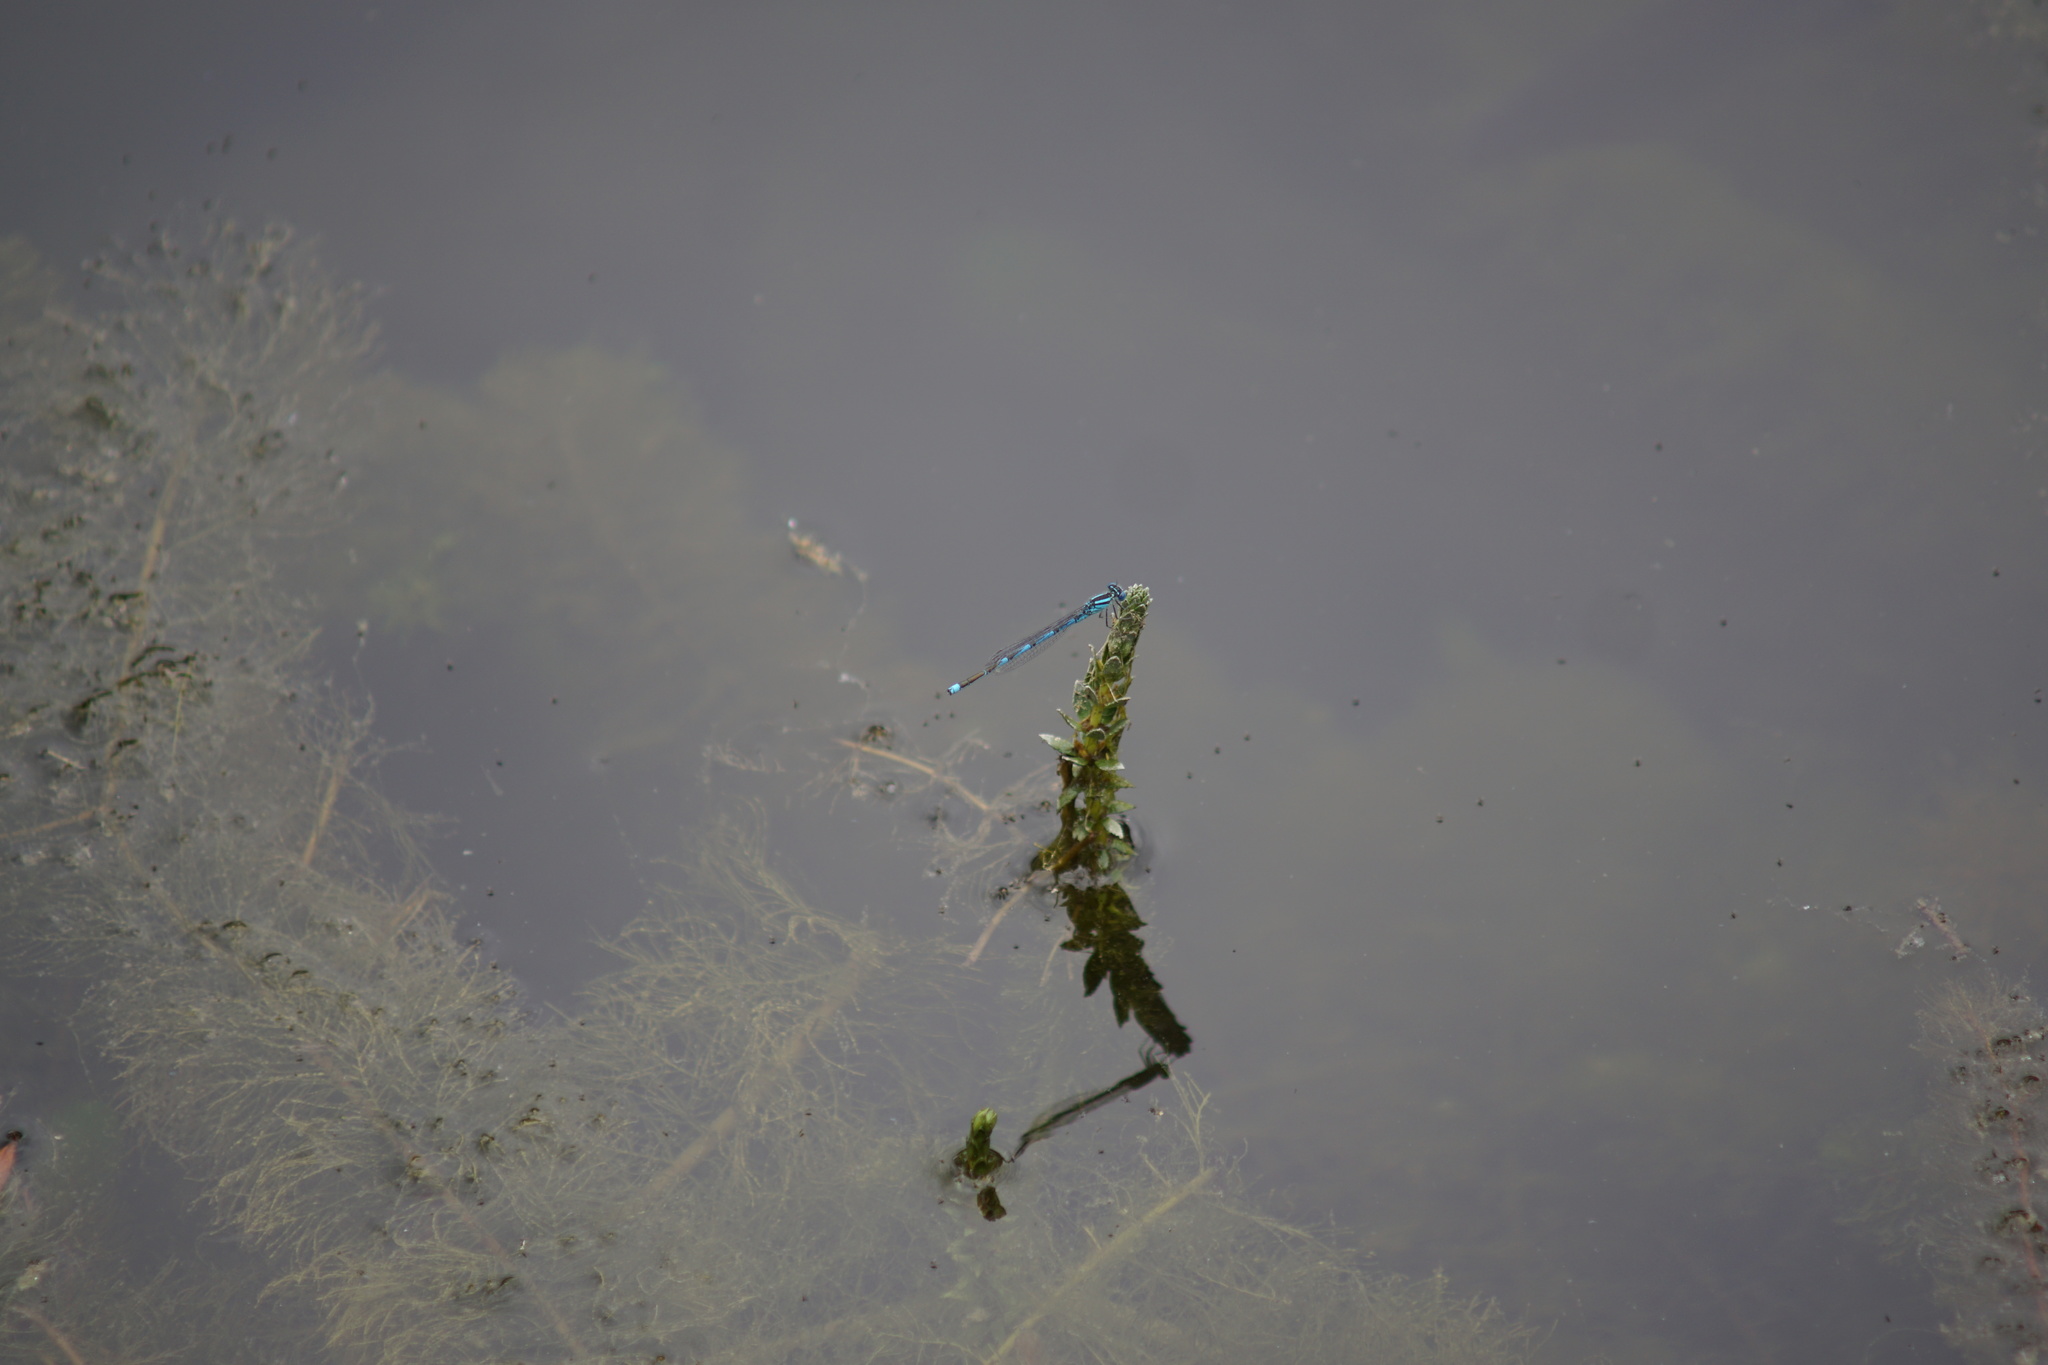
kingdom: Animalia
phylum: Arthropoda
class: Insecta
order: Odonata
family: Coenagrionidae
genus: Erythromma
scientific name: Erythromma lindenii
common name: Blue-eye
